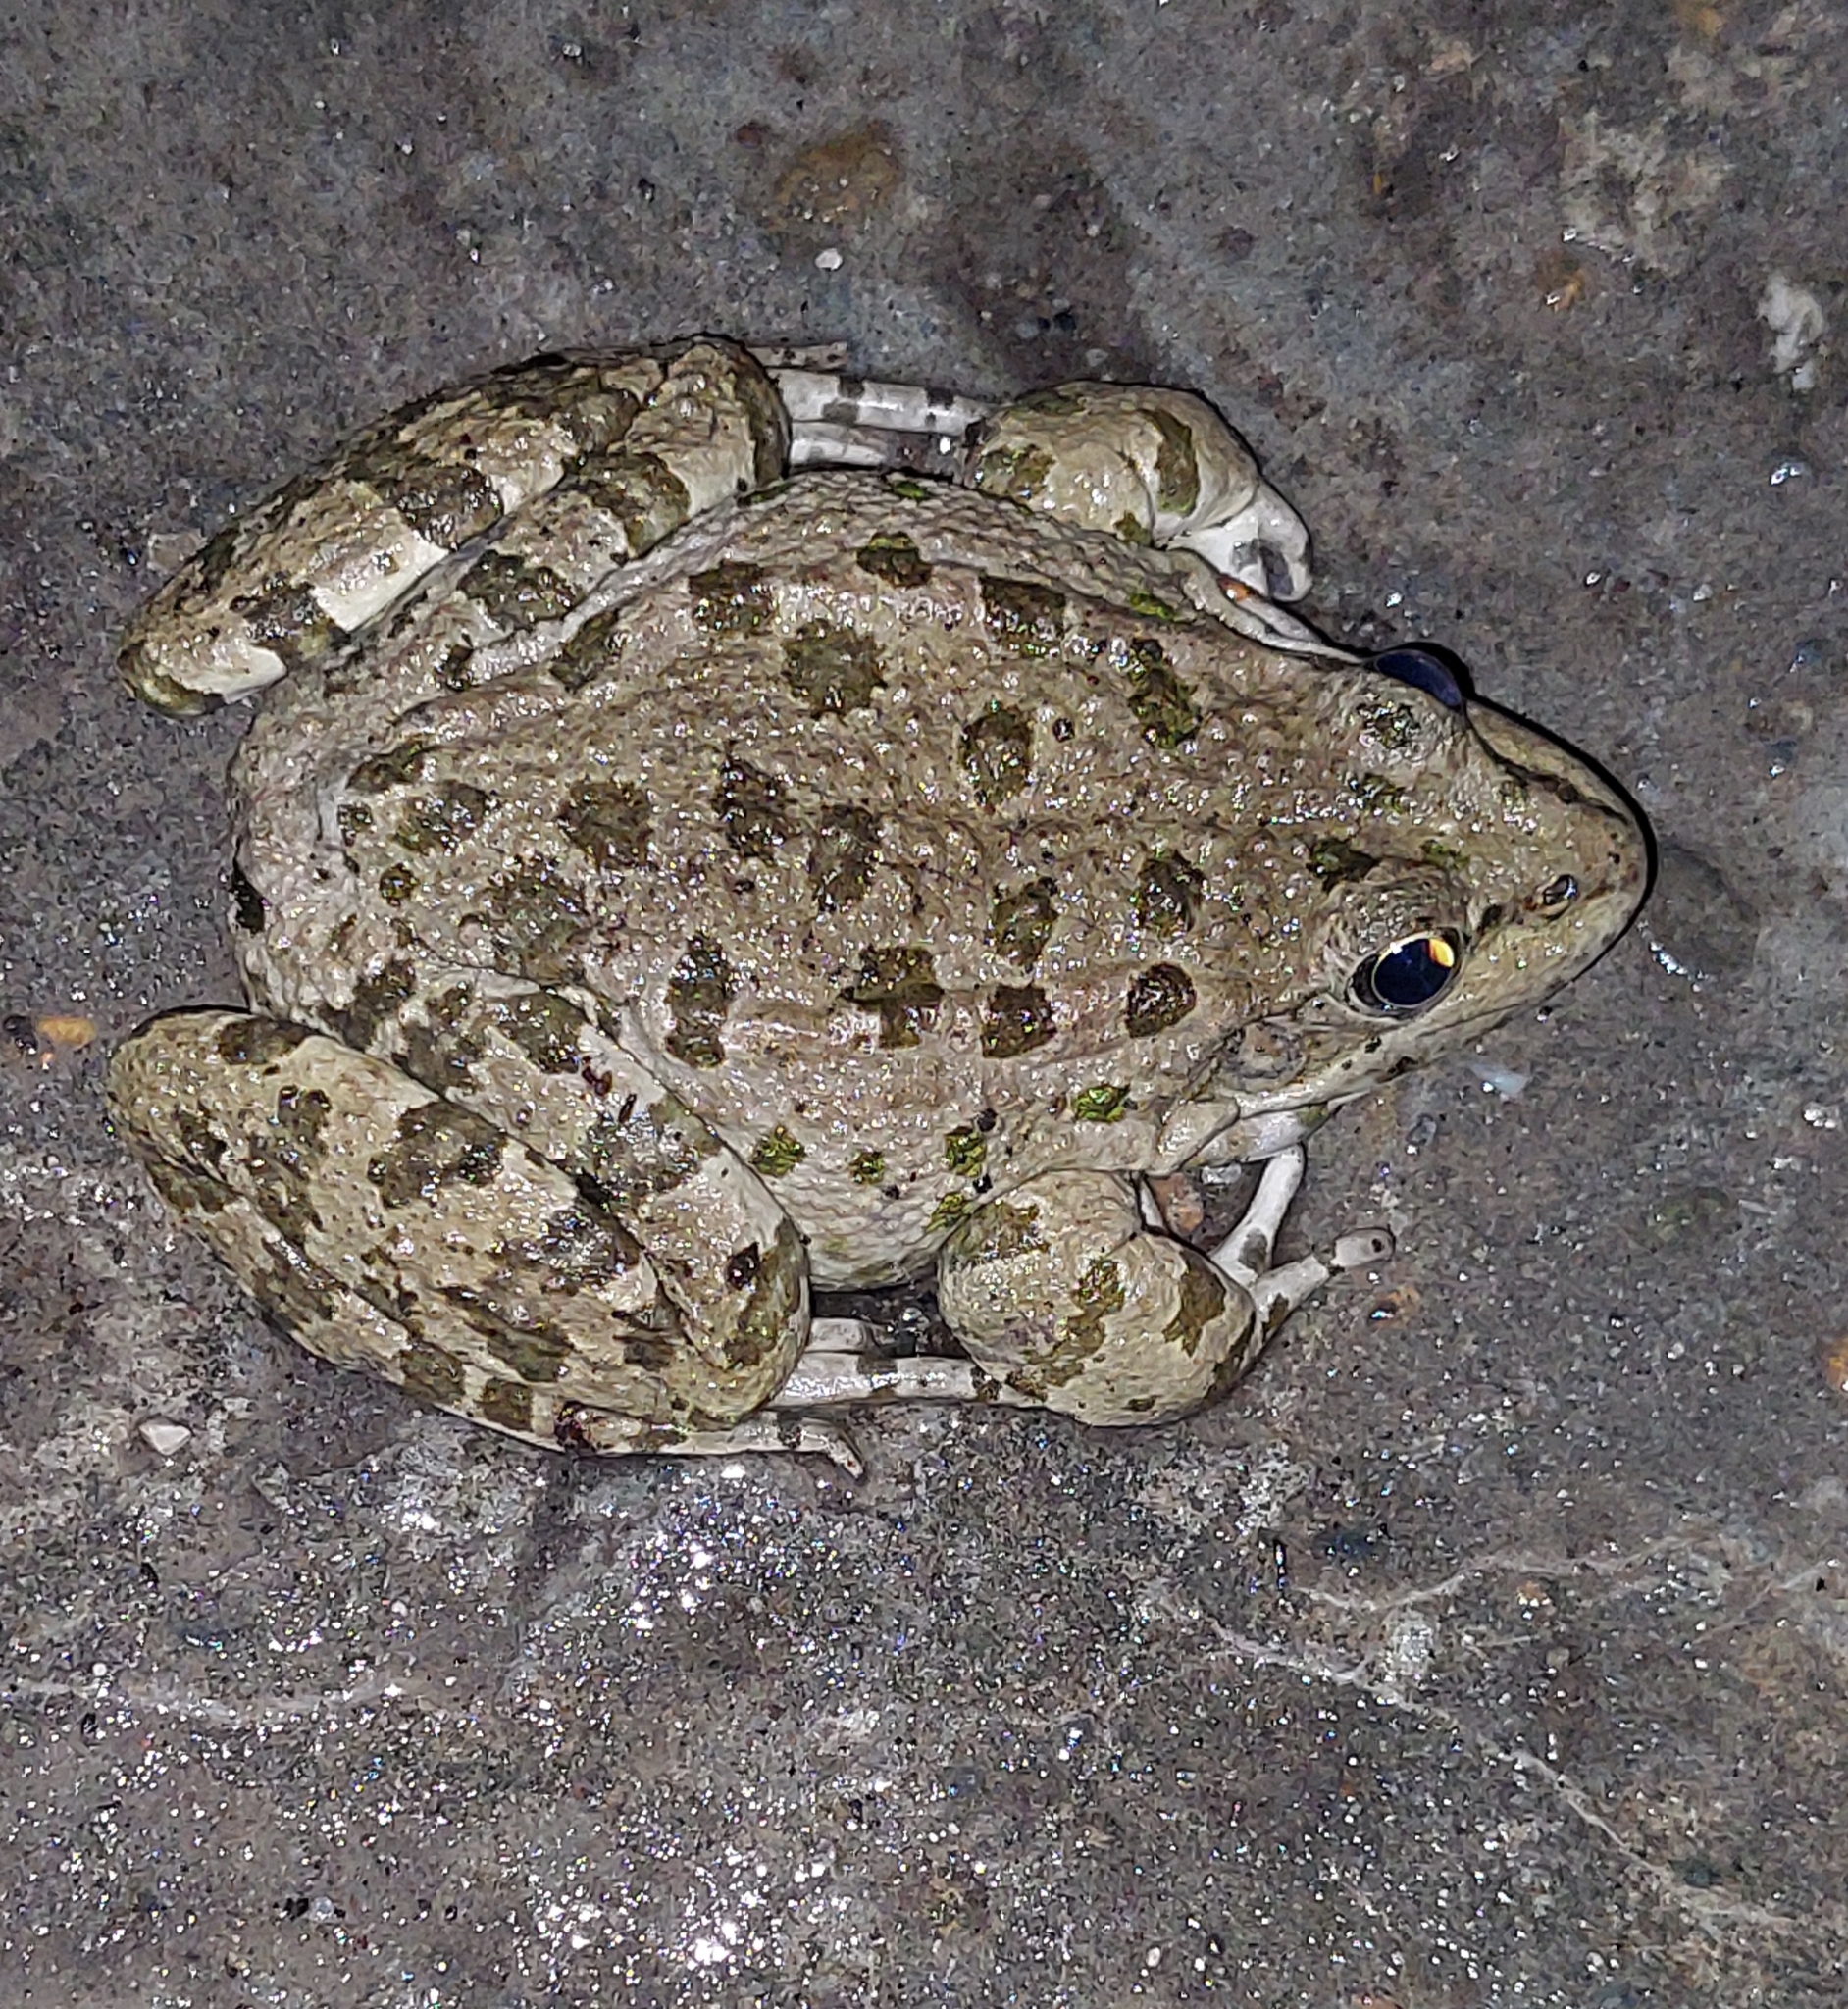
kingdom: Animalia
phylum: Chordata
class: Amphibia
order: Anura
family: Ranidae
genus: Pelophylax
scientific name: Pelophylax ridibundus
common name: Marsh frog
